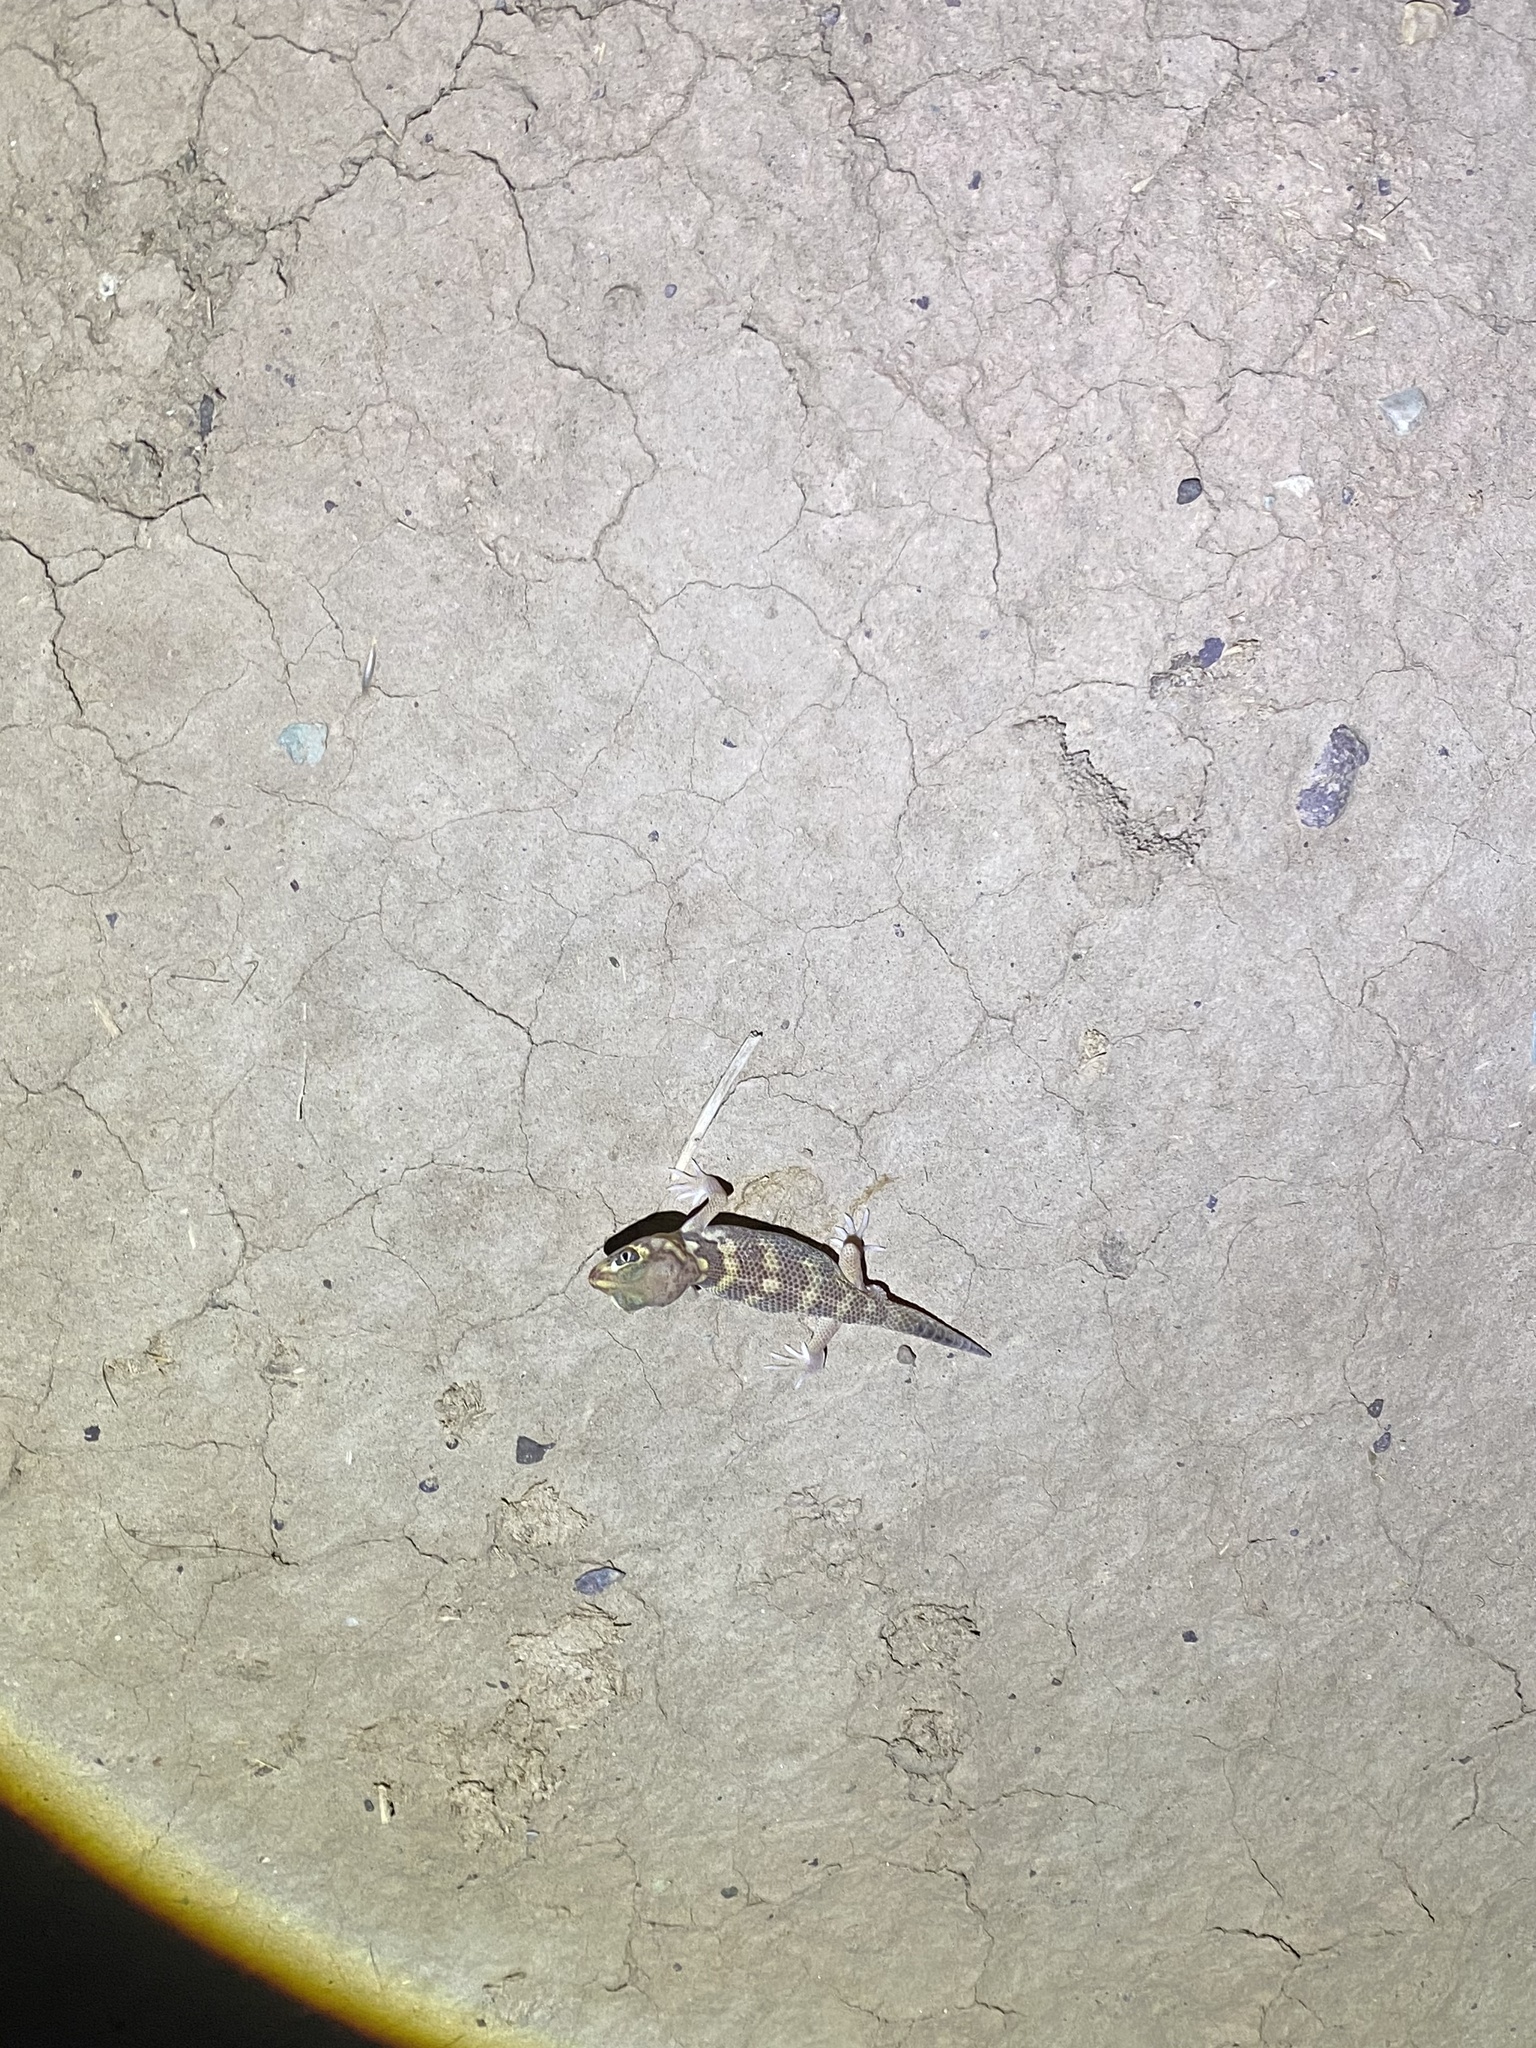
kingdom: Animalia
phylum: Chordata
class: Squamata
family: Sphaerodactylidae
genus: Teratoscincus
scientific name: Teratoscincus bedriagai
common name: Bedriaga's plate-tailed gecko
